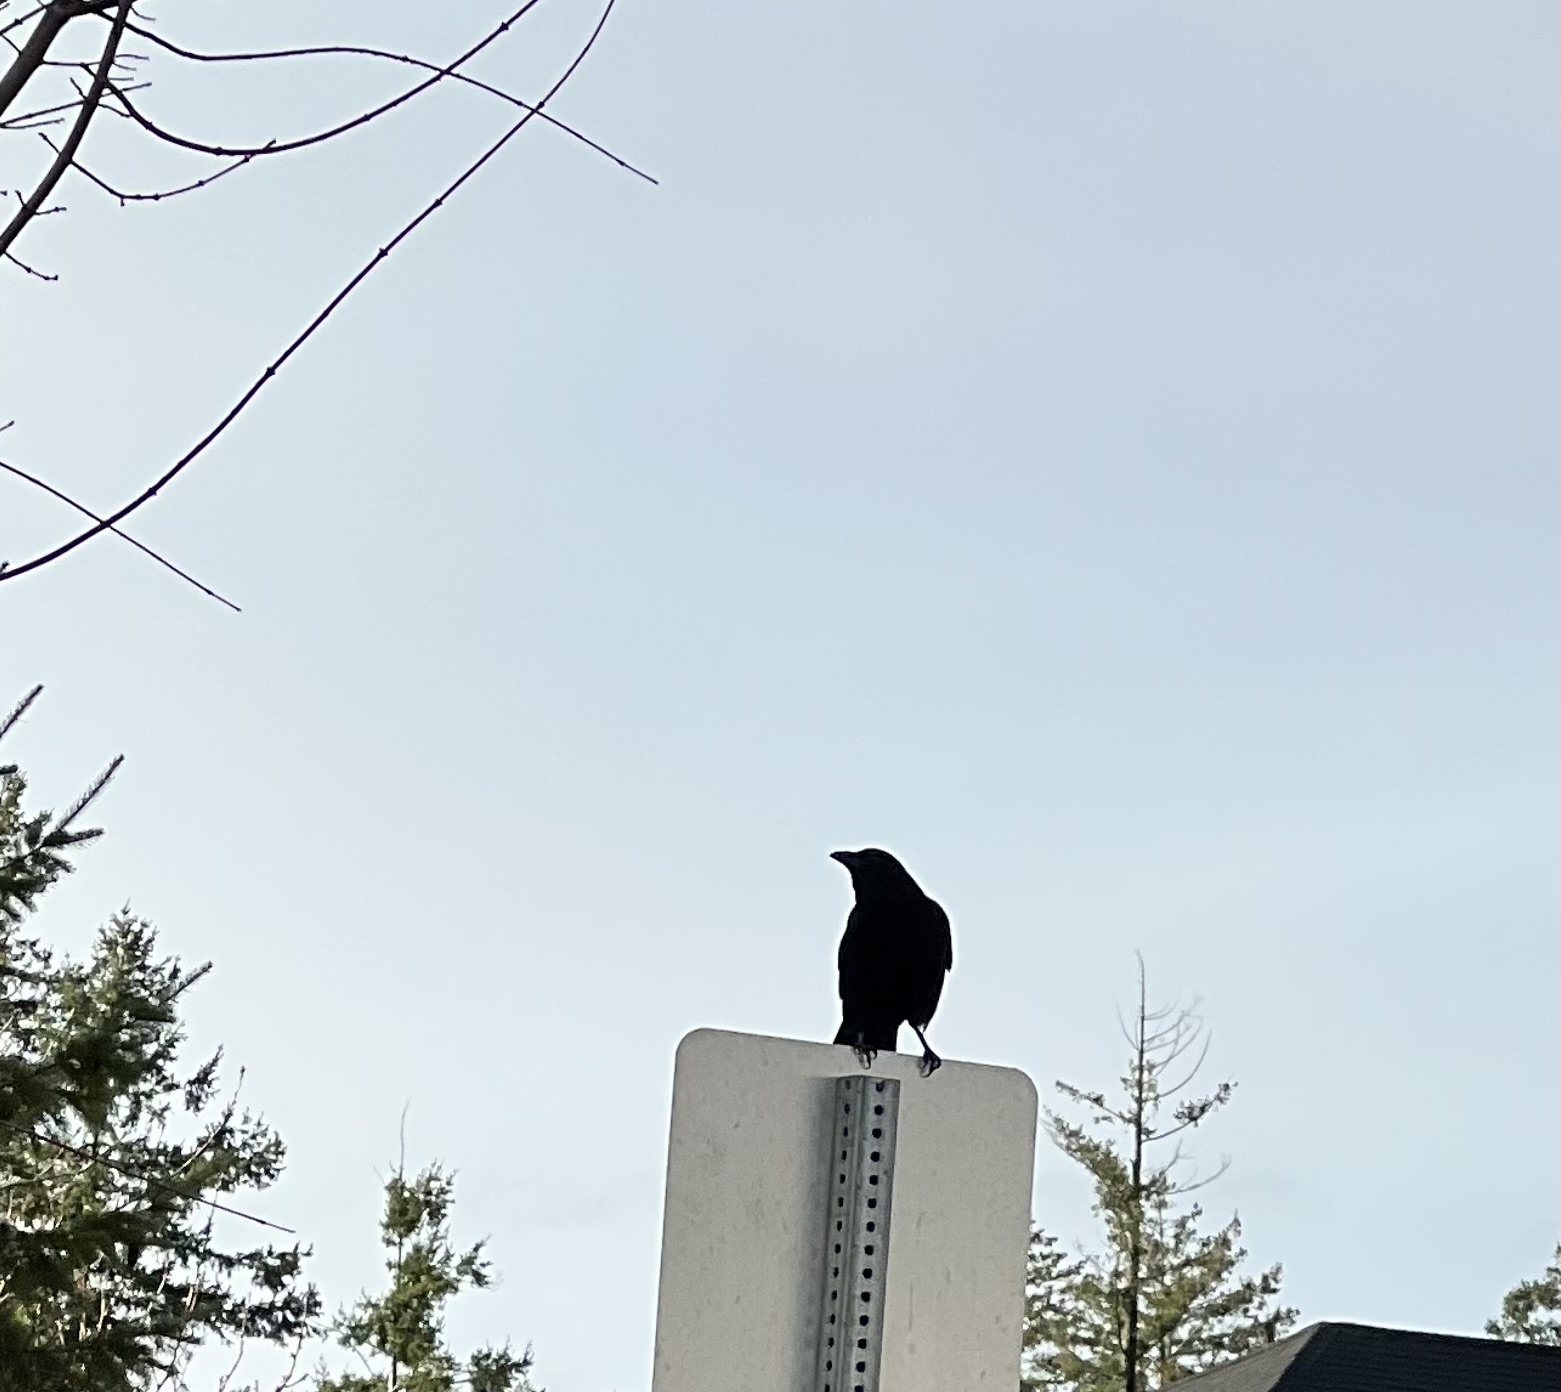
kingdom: Animalia
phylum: Chordata
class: Aves
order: Passeriformes
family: Corvidae
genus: Corvus
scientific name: Corvus brachyrhynchos
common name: American crow
